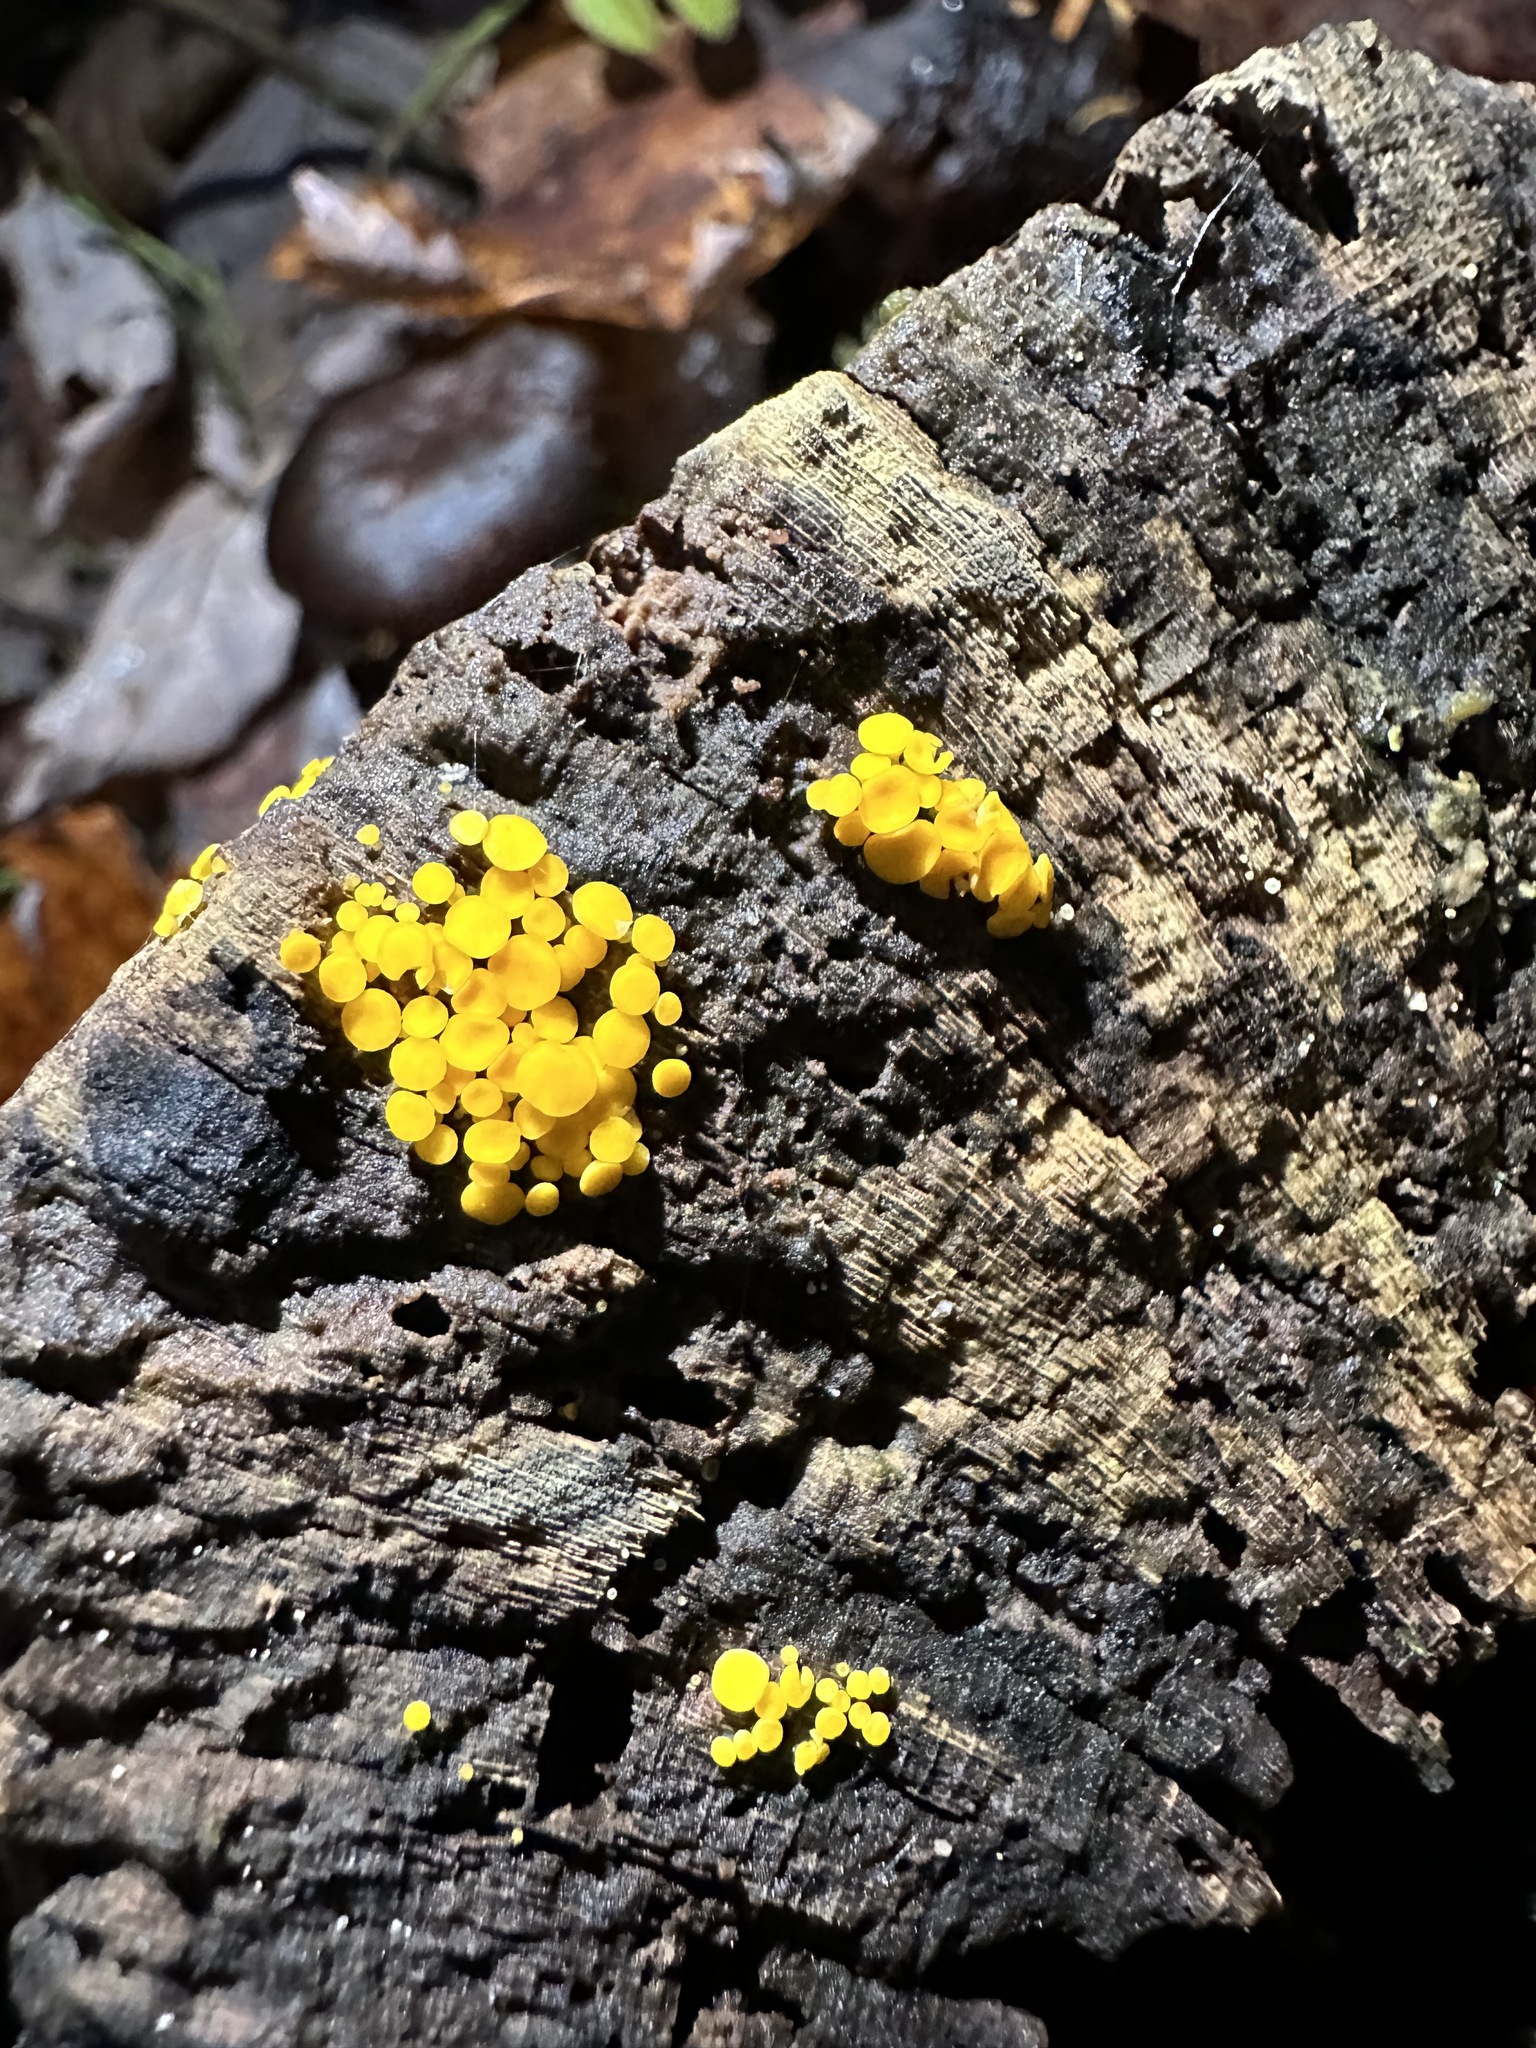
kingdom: Fungi
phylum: Ascomycota
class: Leotiomycetes
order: Helotiales
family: Pezizellaceae
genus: Calycina
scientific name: Calycina citrina
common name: Yellow fairy cups
